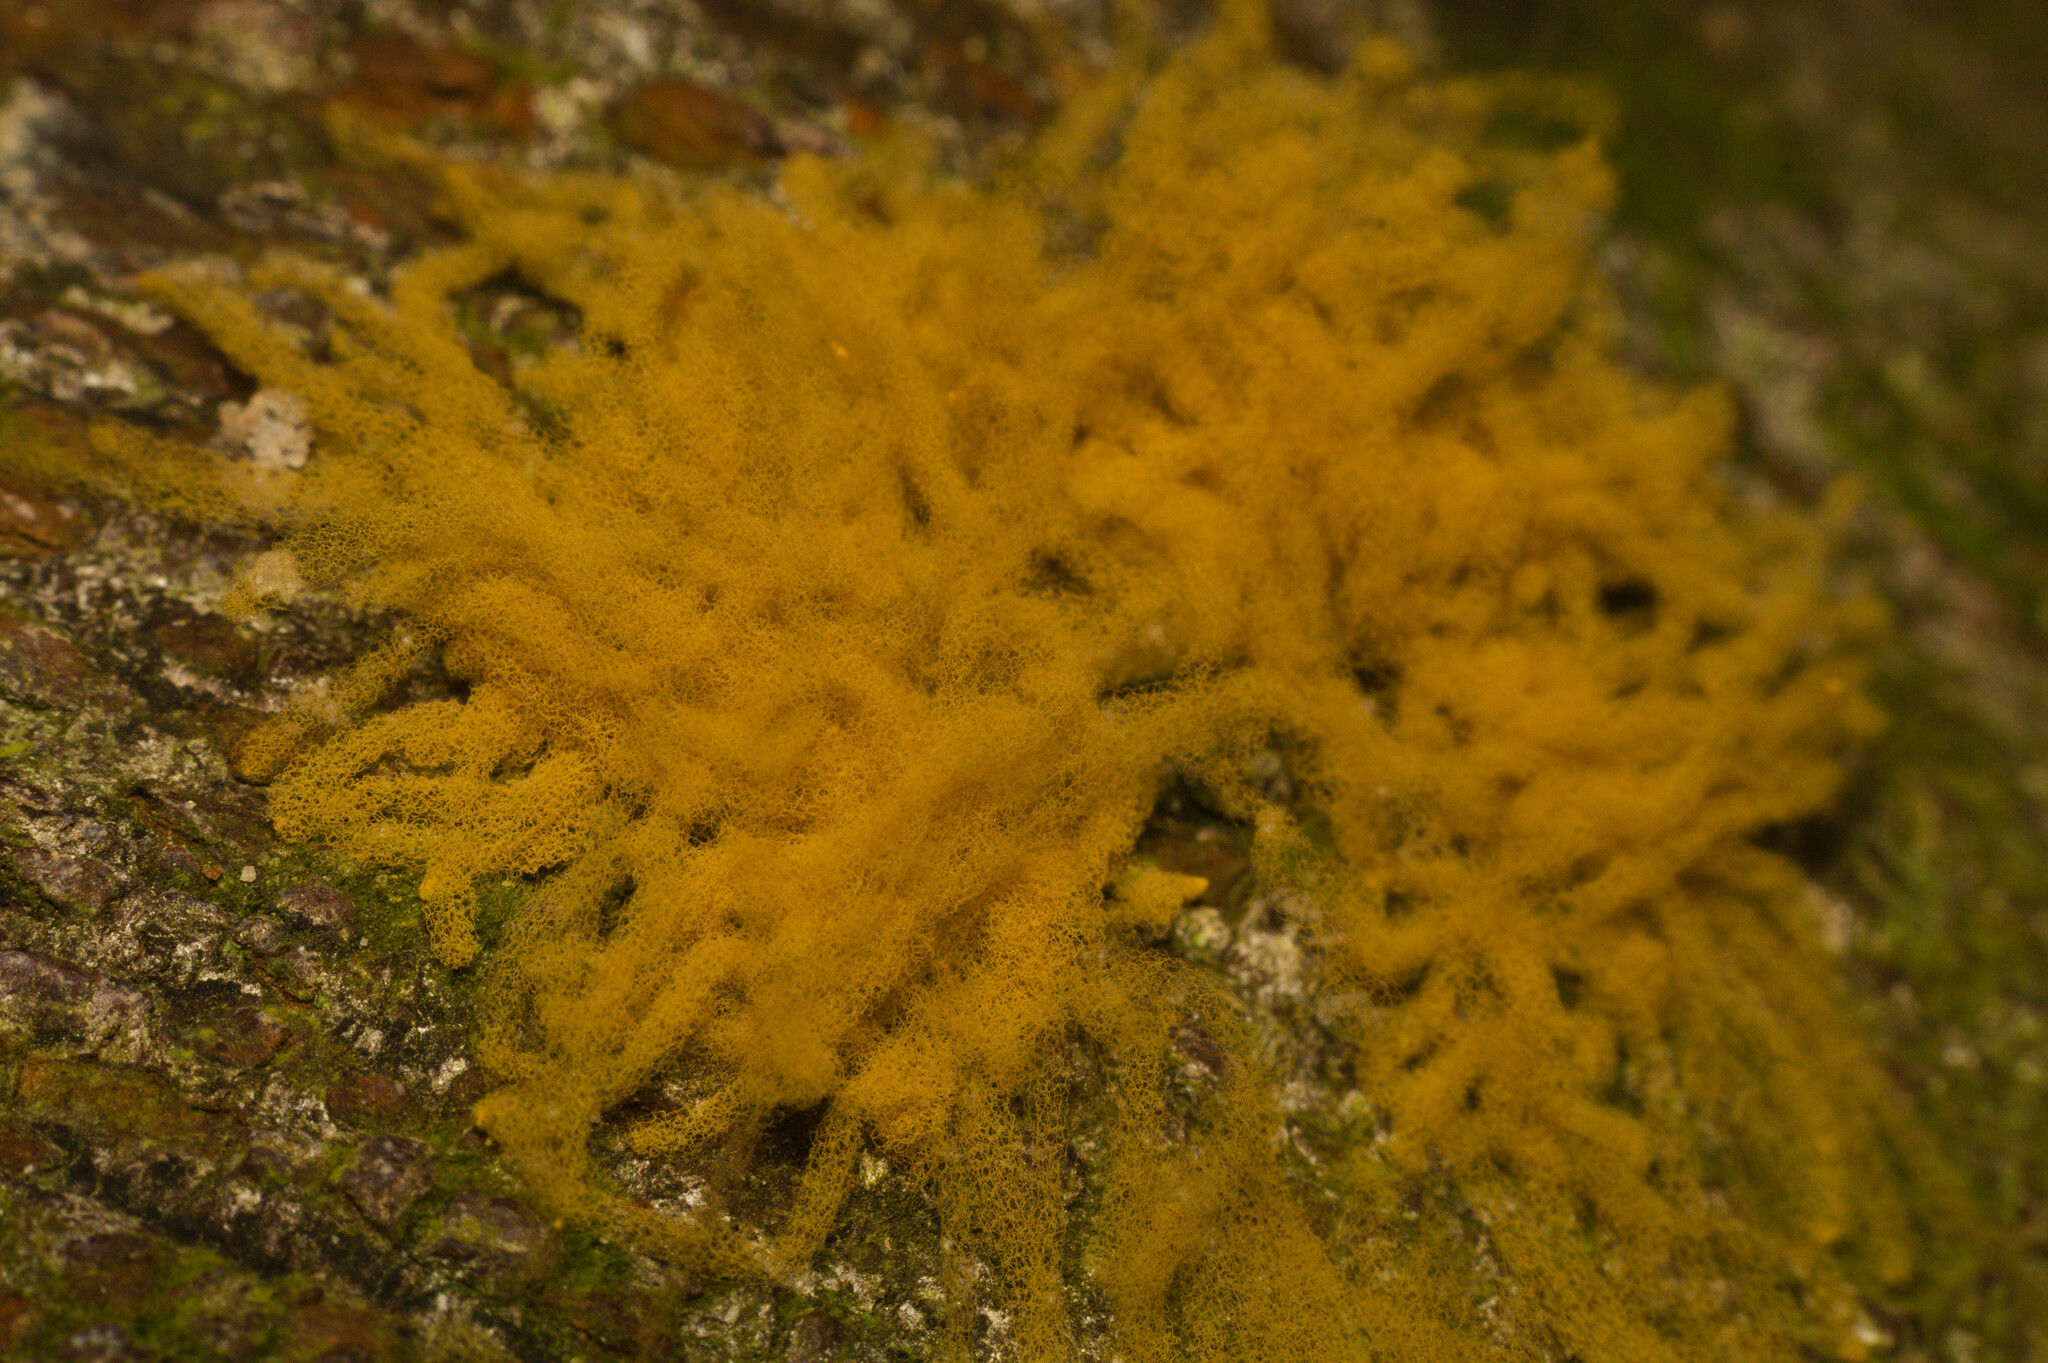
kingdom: Protozoa
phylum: Mycetozoa
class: Myxomycetes
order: Trichiales
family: Arcyriaceae
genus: Arcyria
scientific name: Arcyria obvelata
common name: Yellow carnival candy slime
